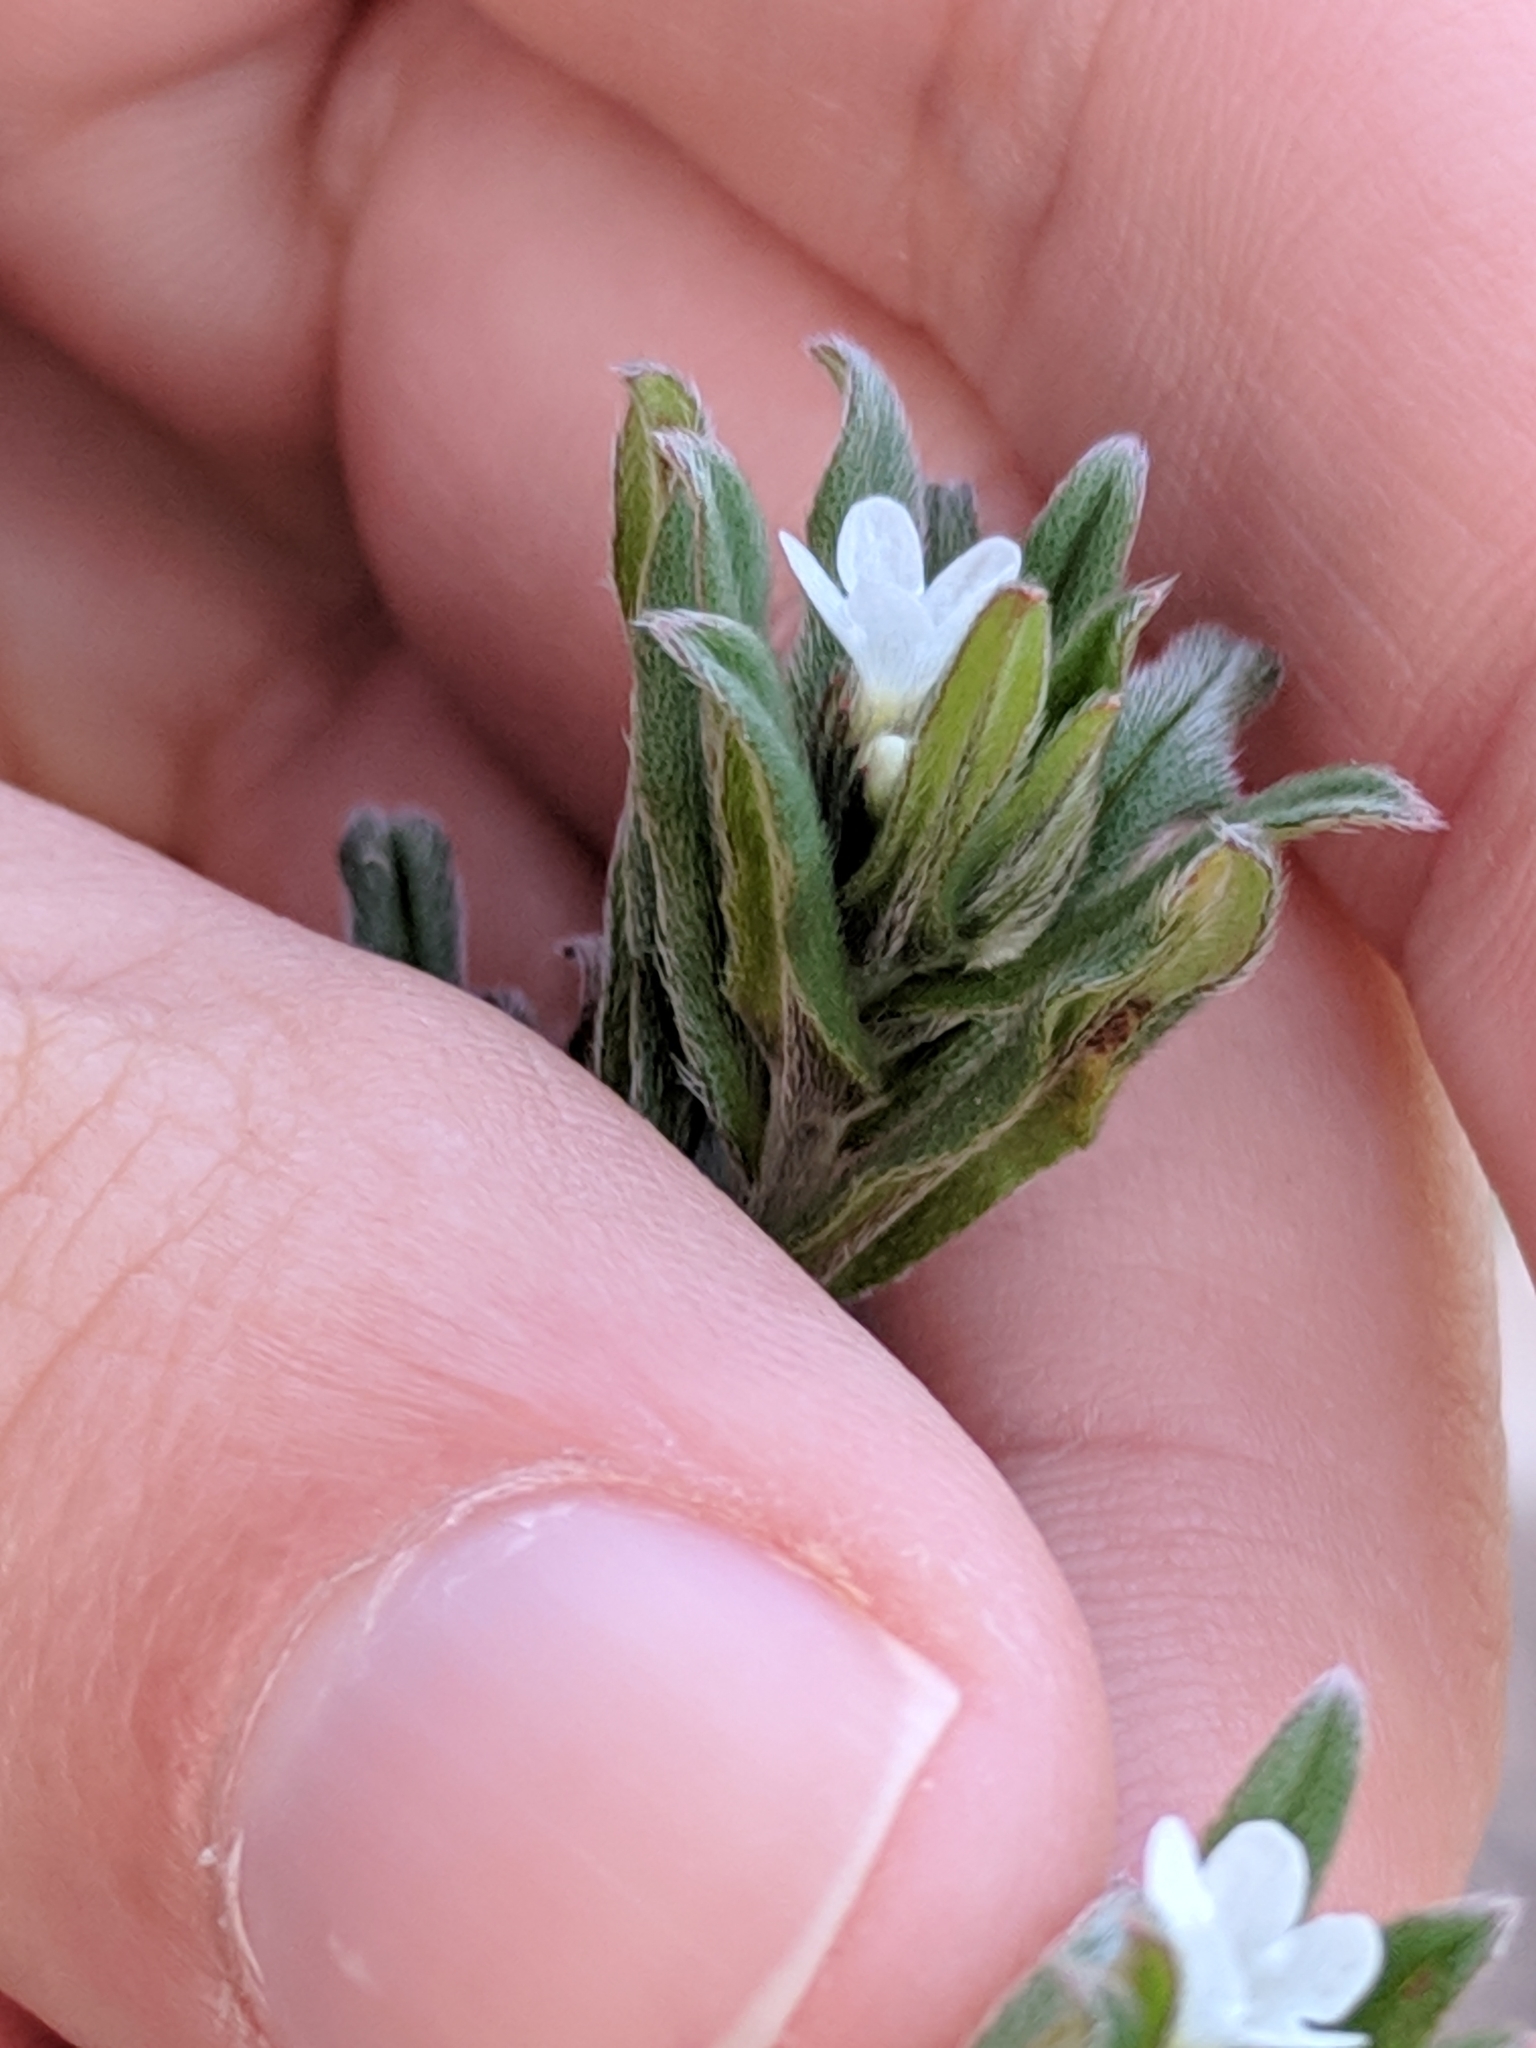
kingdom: Plantae
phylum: Tracheophyta
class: Magnoliopsida
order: Boraginales
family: Boraginaceae
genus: Buglossoides
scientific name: Buglossoides arvensis
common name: Corn gromwell
